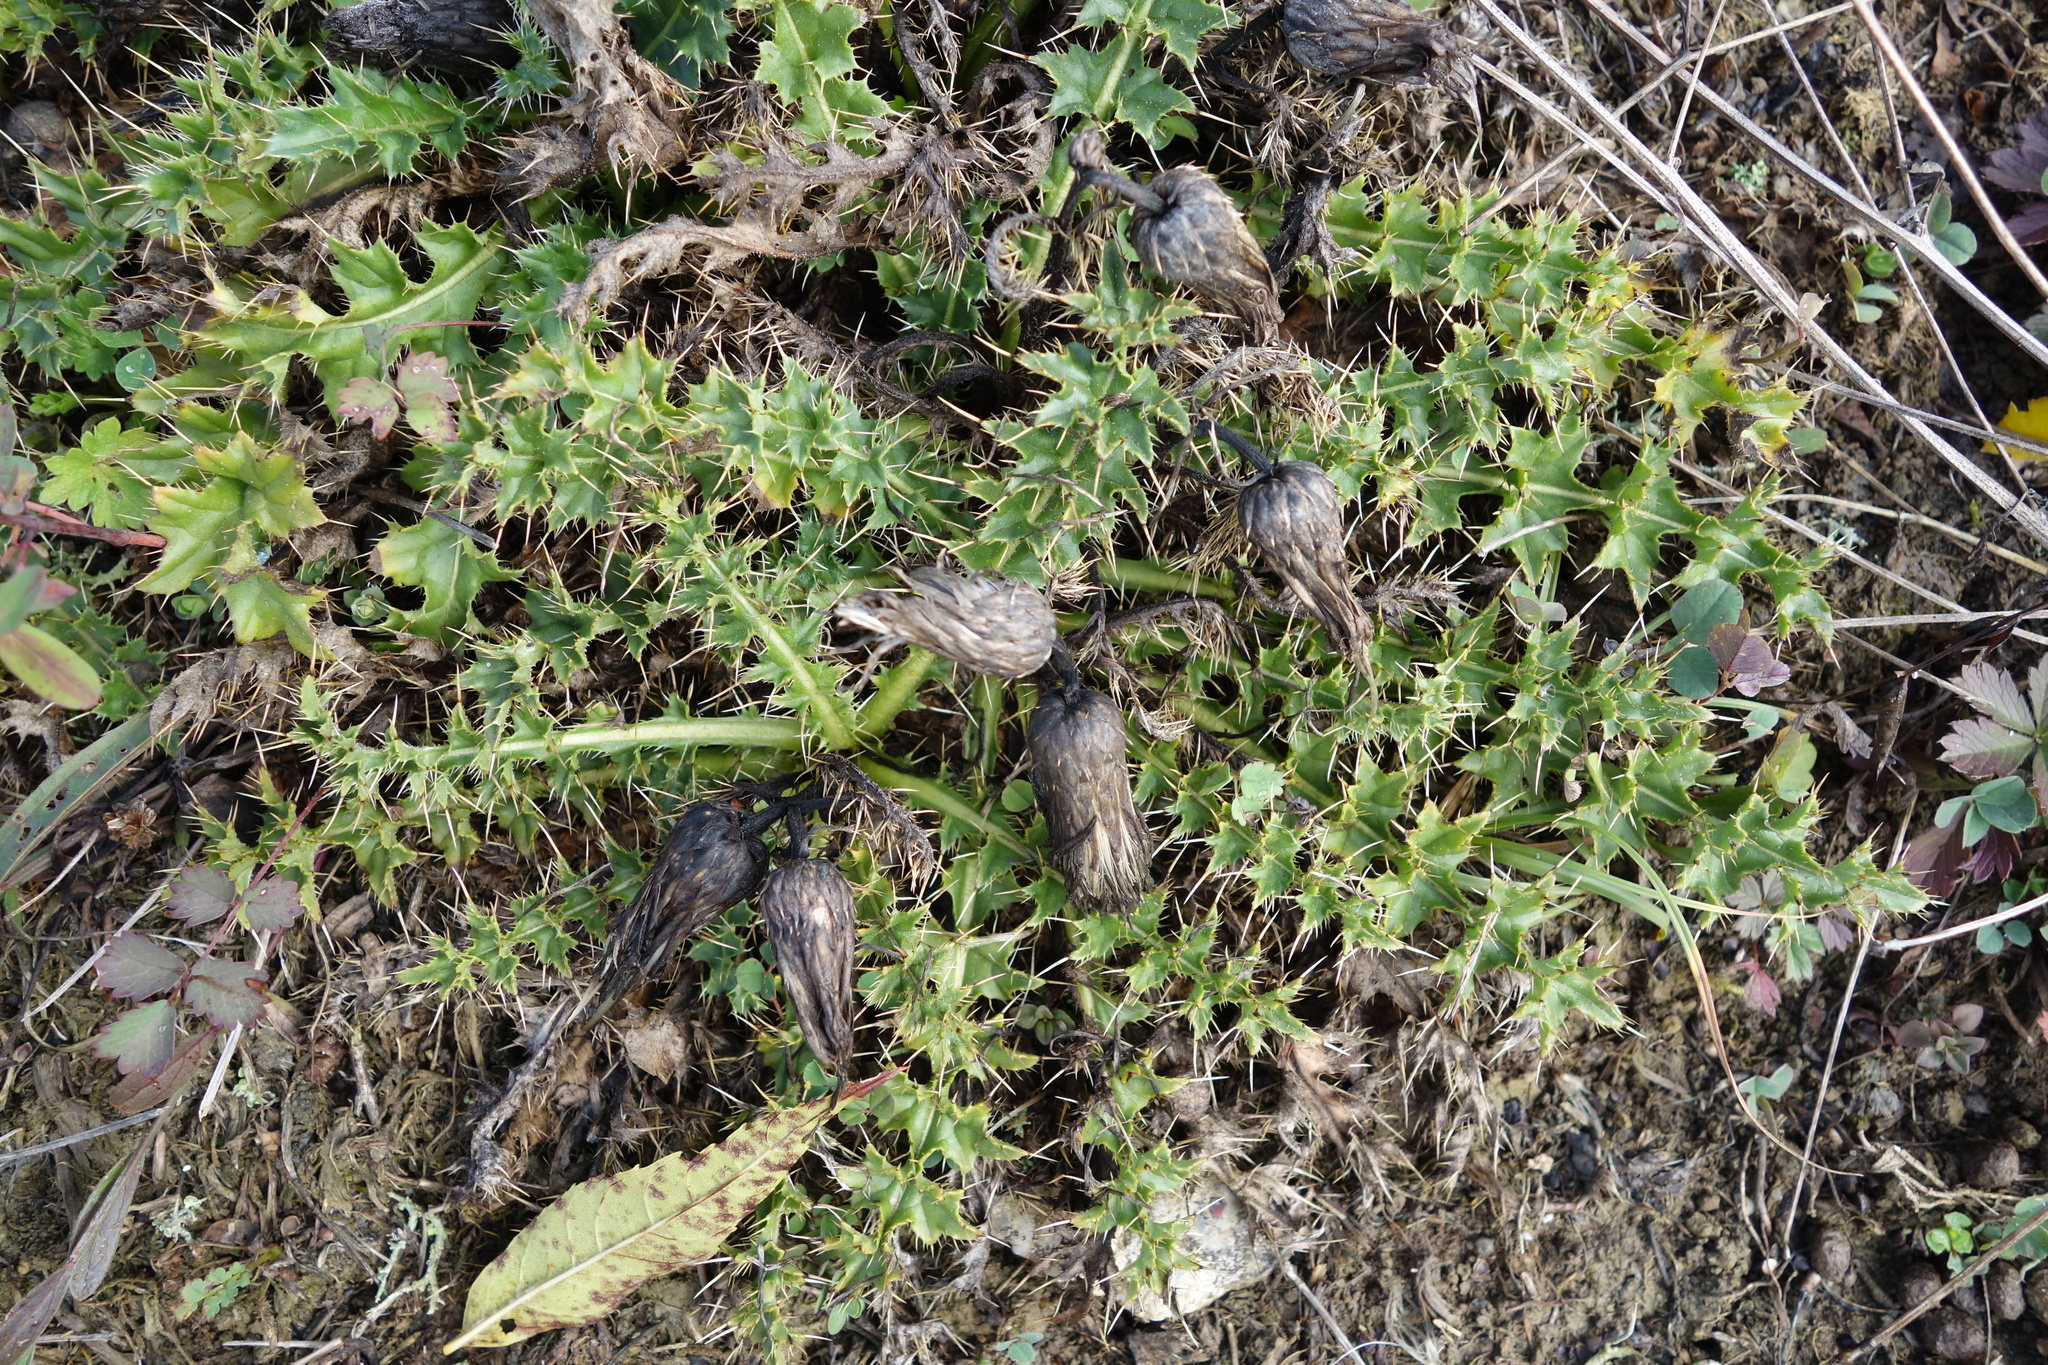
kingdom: Plantae
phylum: Tracheophyta
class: Magnoliopsida
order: Asterales
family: Asteraceae
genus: Cirsium
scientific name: Cirsium acaulon
